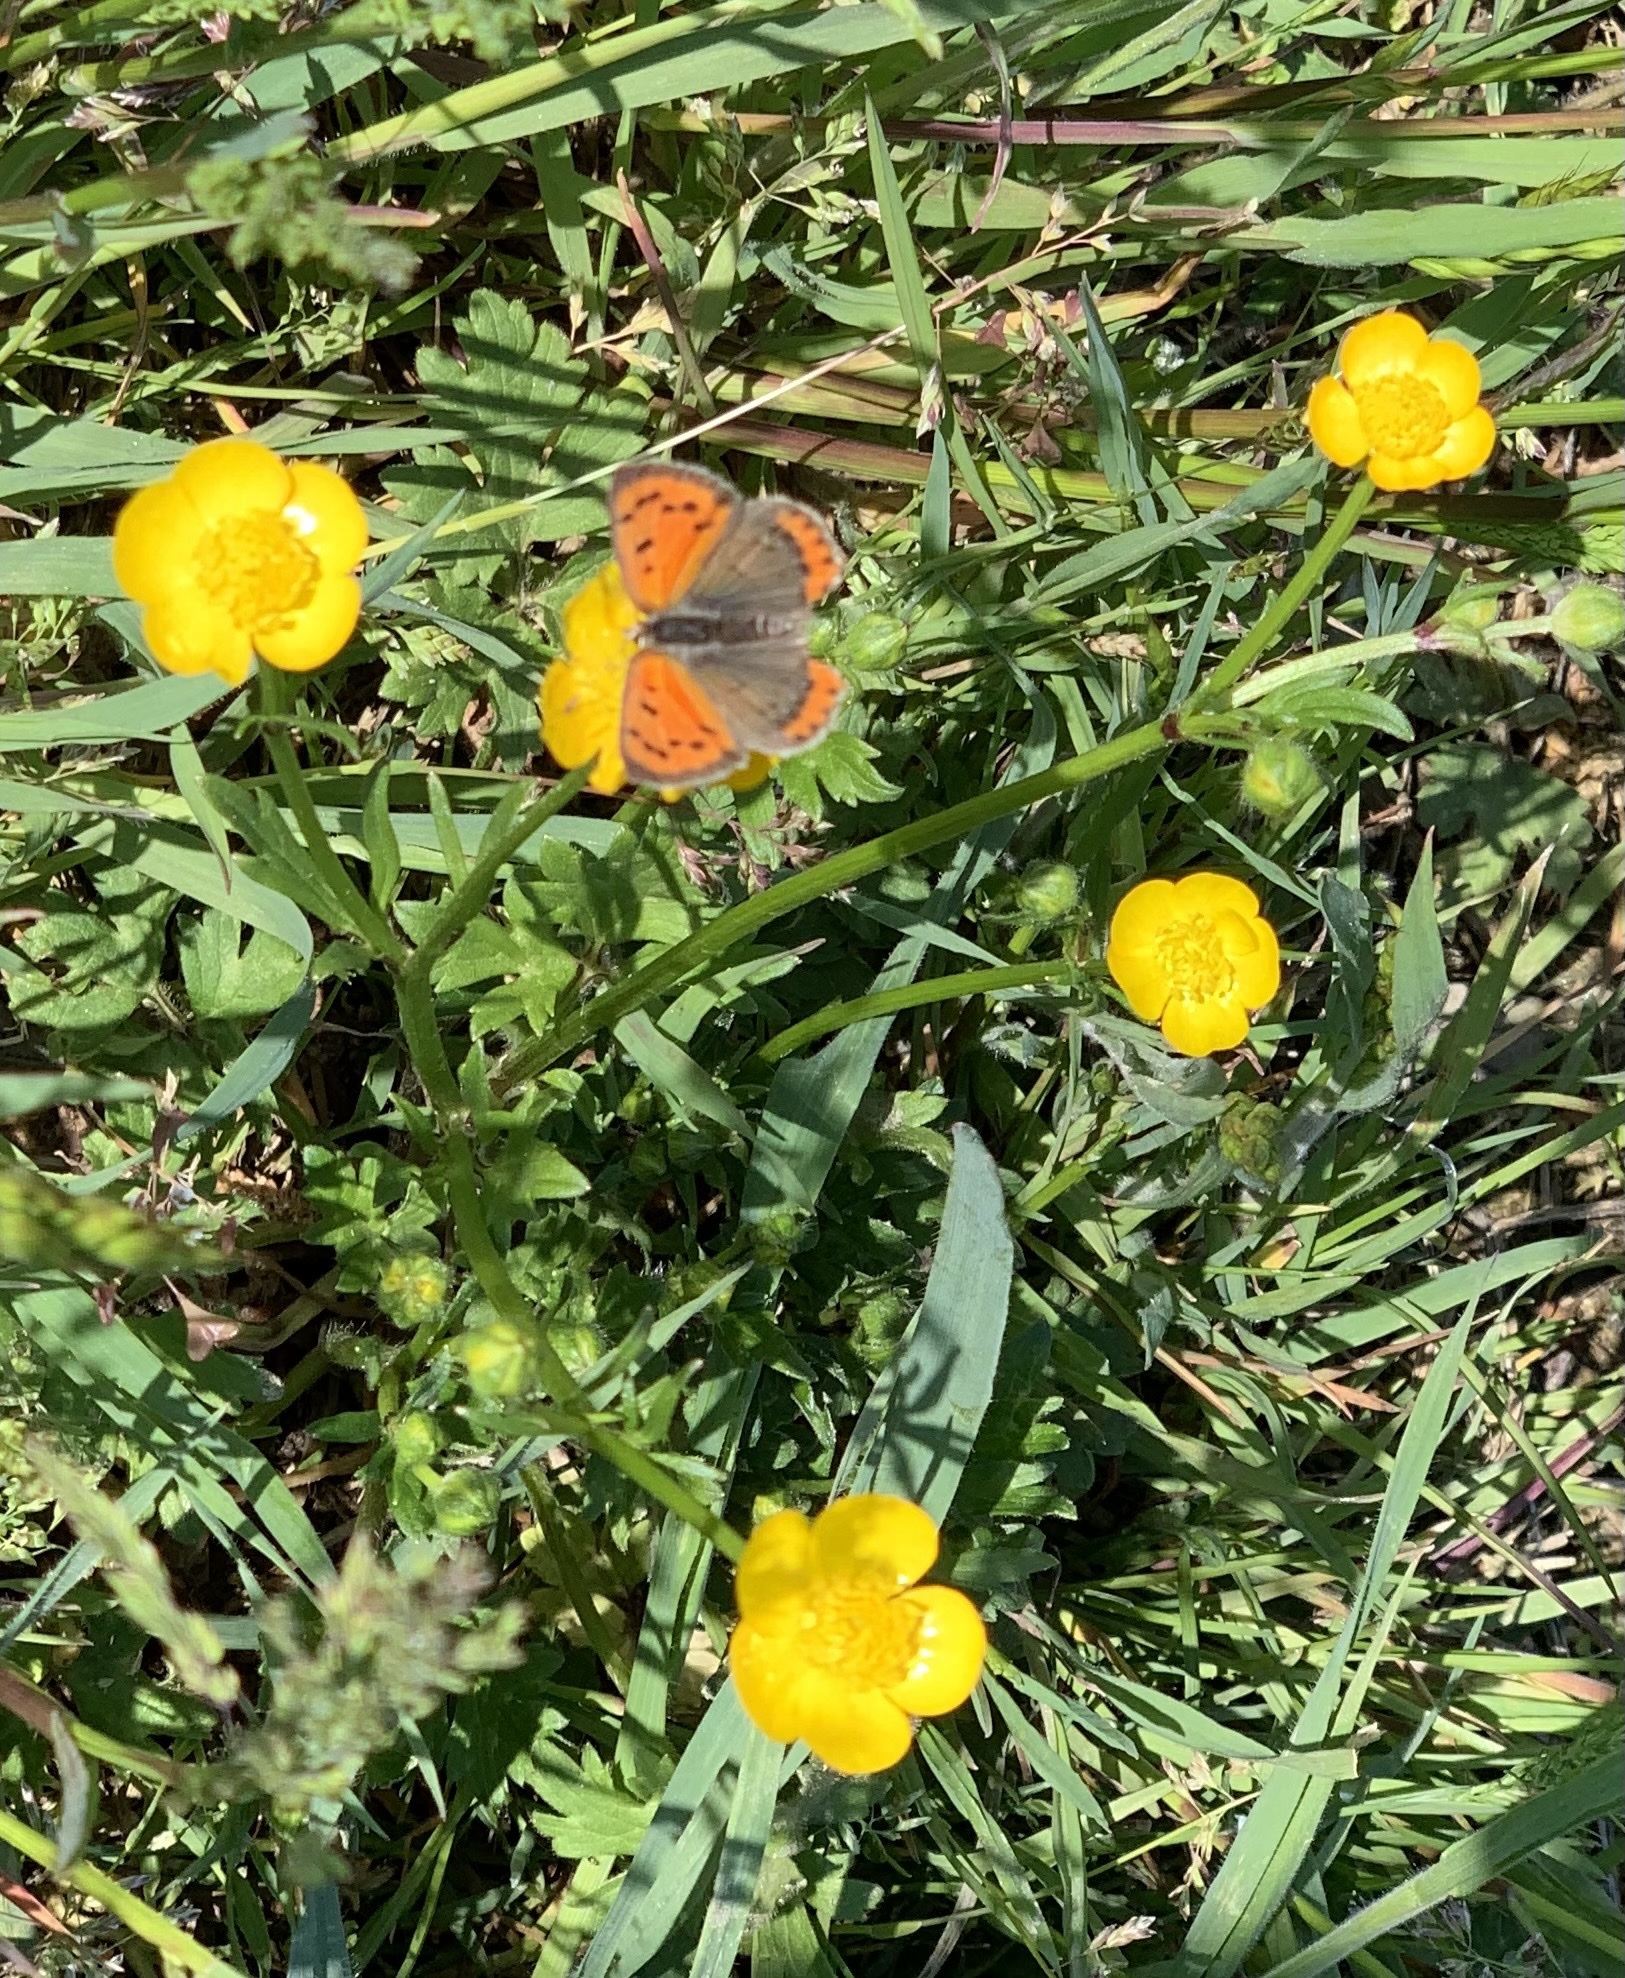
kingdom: Plantae
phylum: Tracheophyta
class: Magnoliopsida
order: Ranunculales
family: Ranunculaceae
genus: Ranunculus
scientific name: Ranunculus bulbosus
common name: Bulbous buttercup
